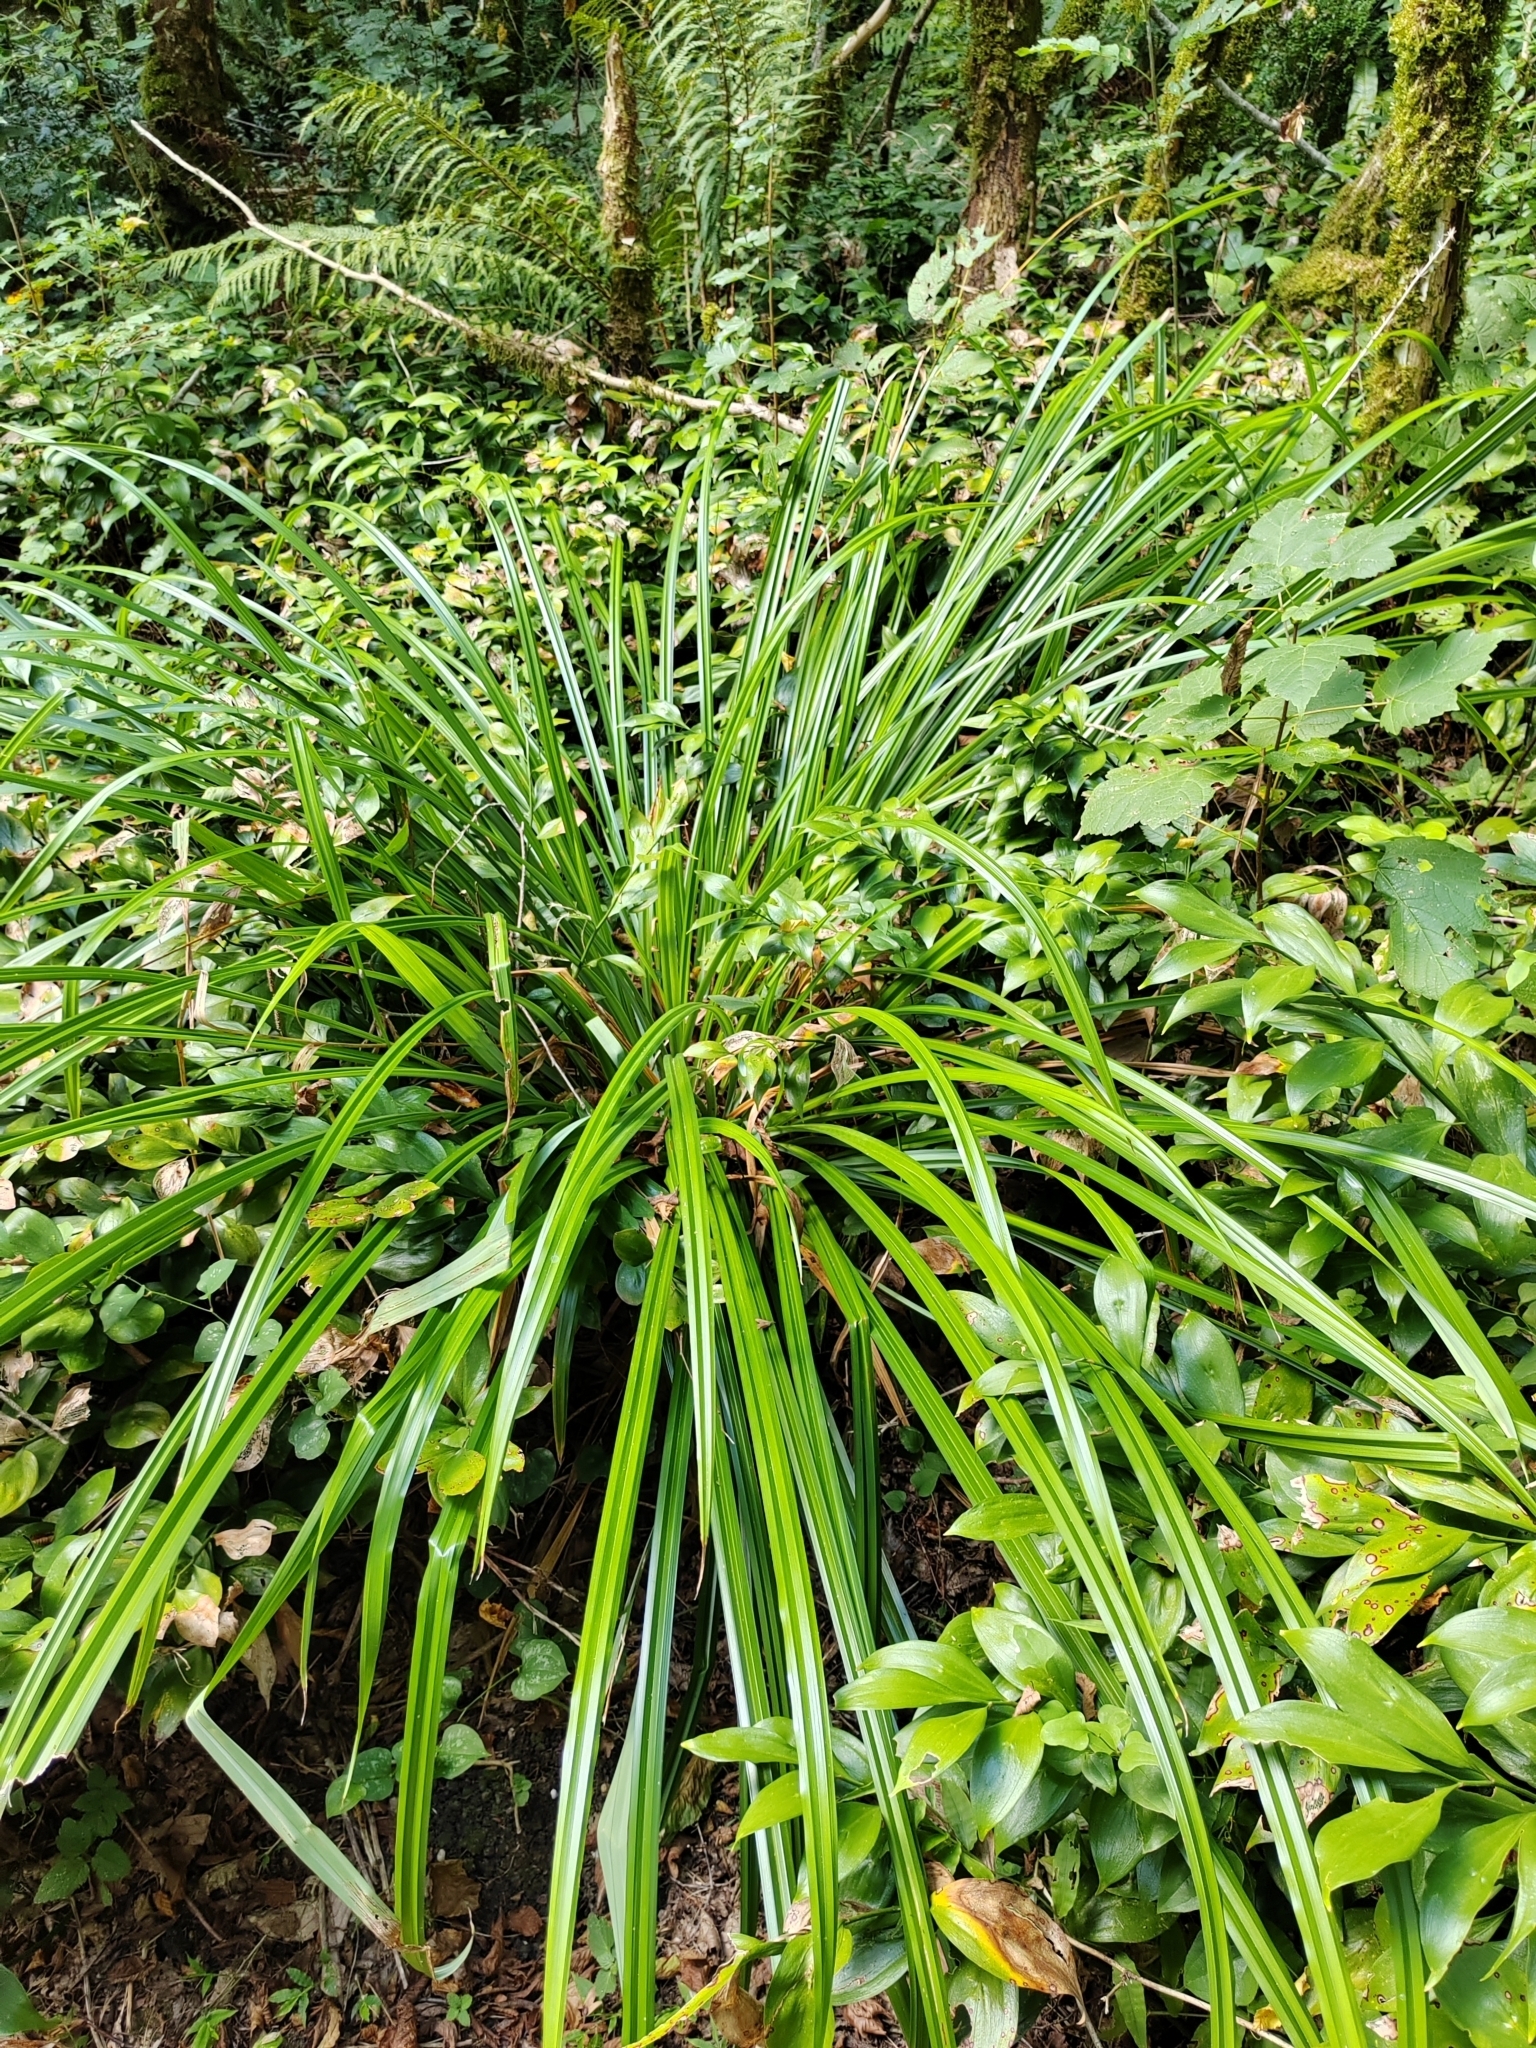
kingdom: Plantae
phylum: Tracheophyta
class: Liliopsida
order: Poales
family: Cyperaceae
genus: Carex
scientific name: Carex pendula
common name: Pendulous sedge
